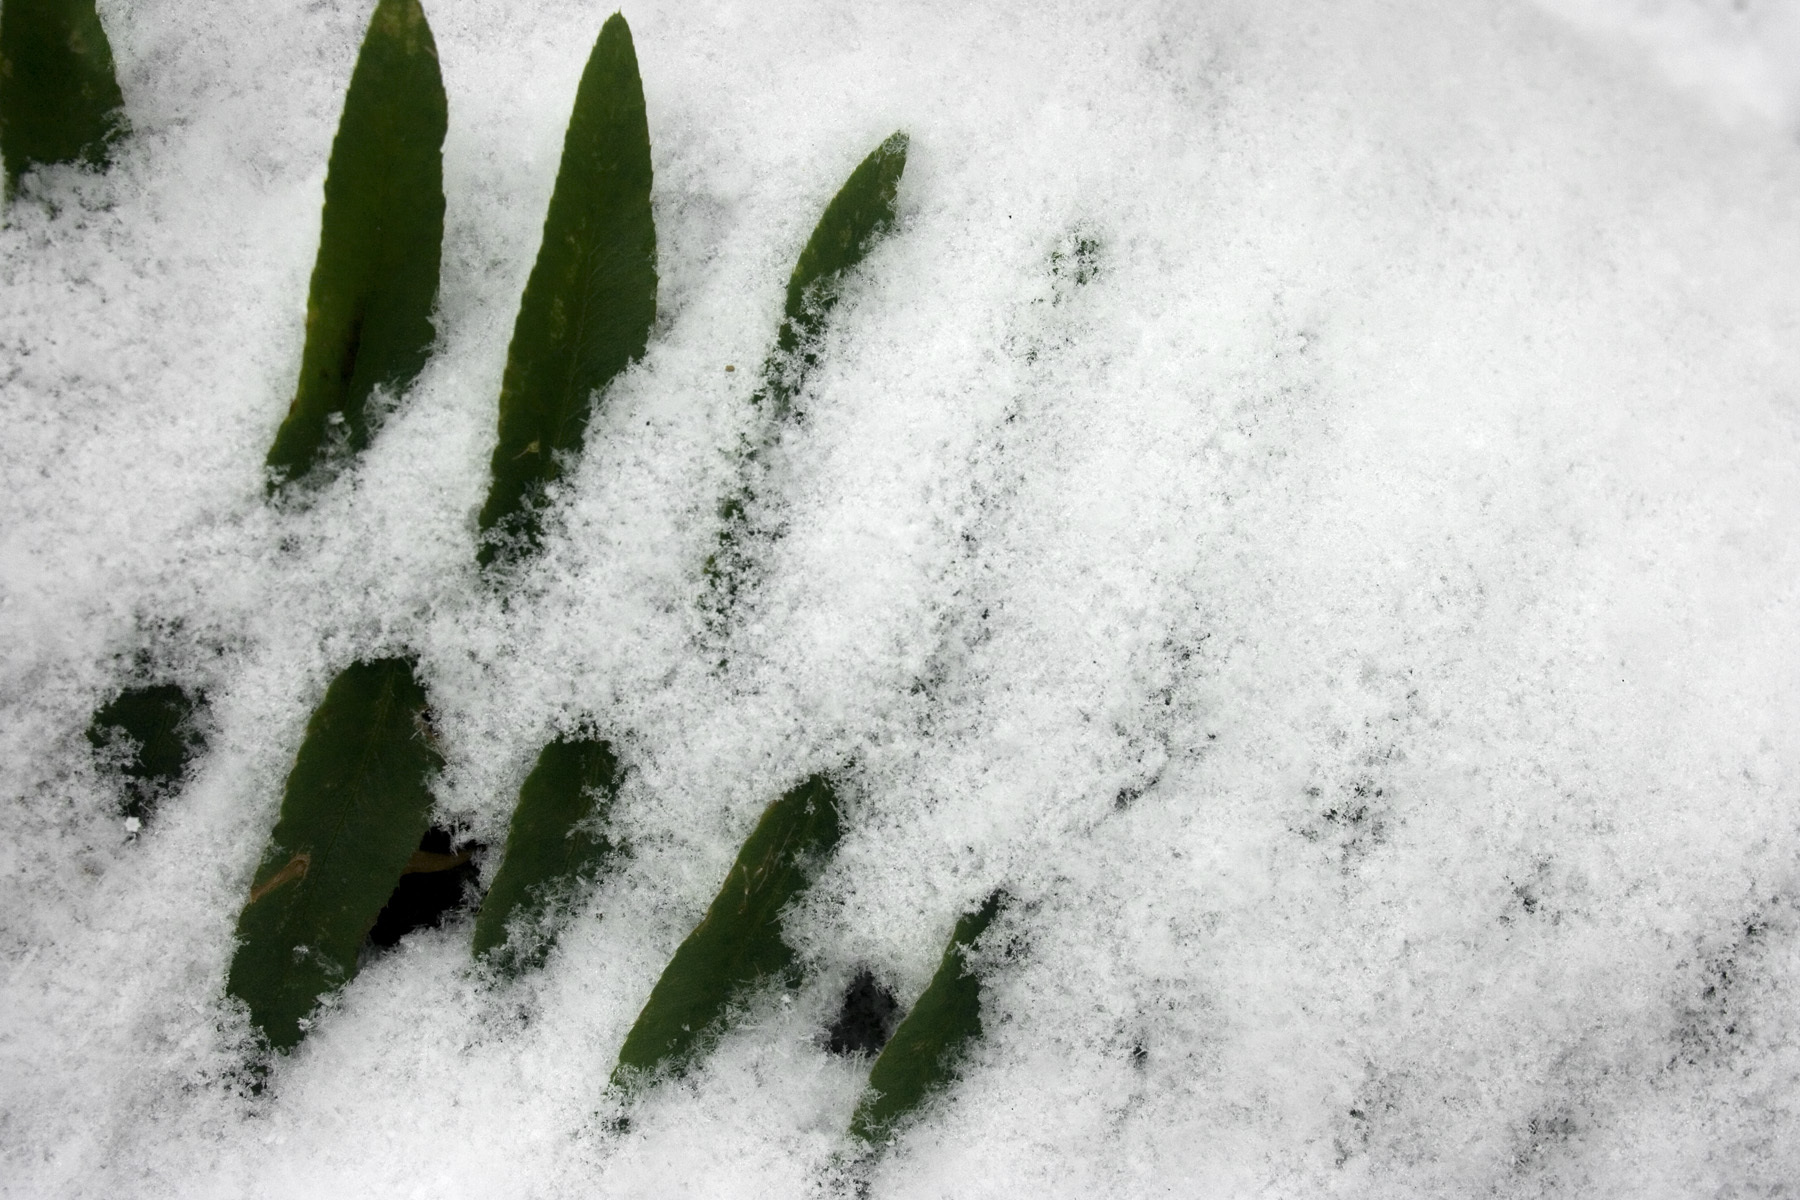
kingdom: Plantae
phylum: Tracheophyta
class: Polypodiopsida
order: Polypodiales
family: Dryopteridaceae
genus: Polystichum
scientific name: Polystichum acrostichoides
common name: Christmas fern
